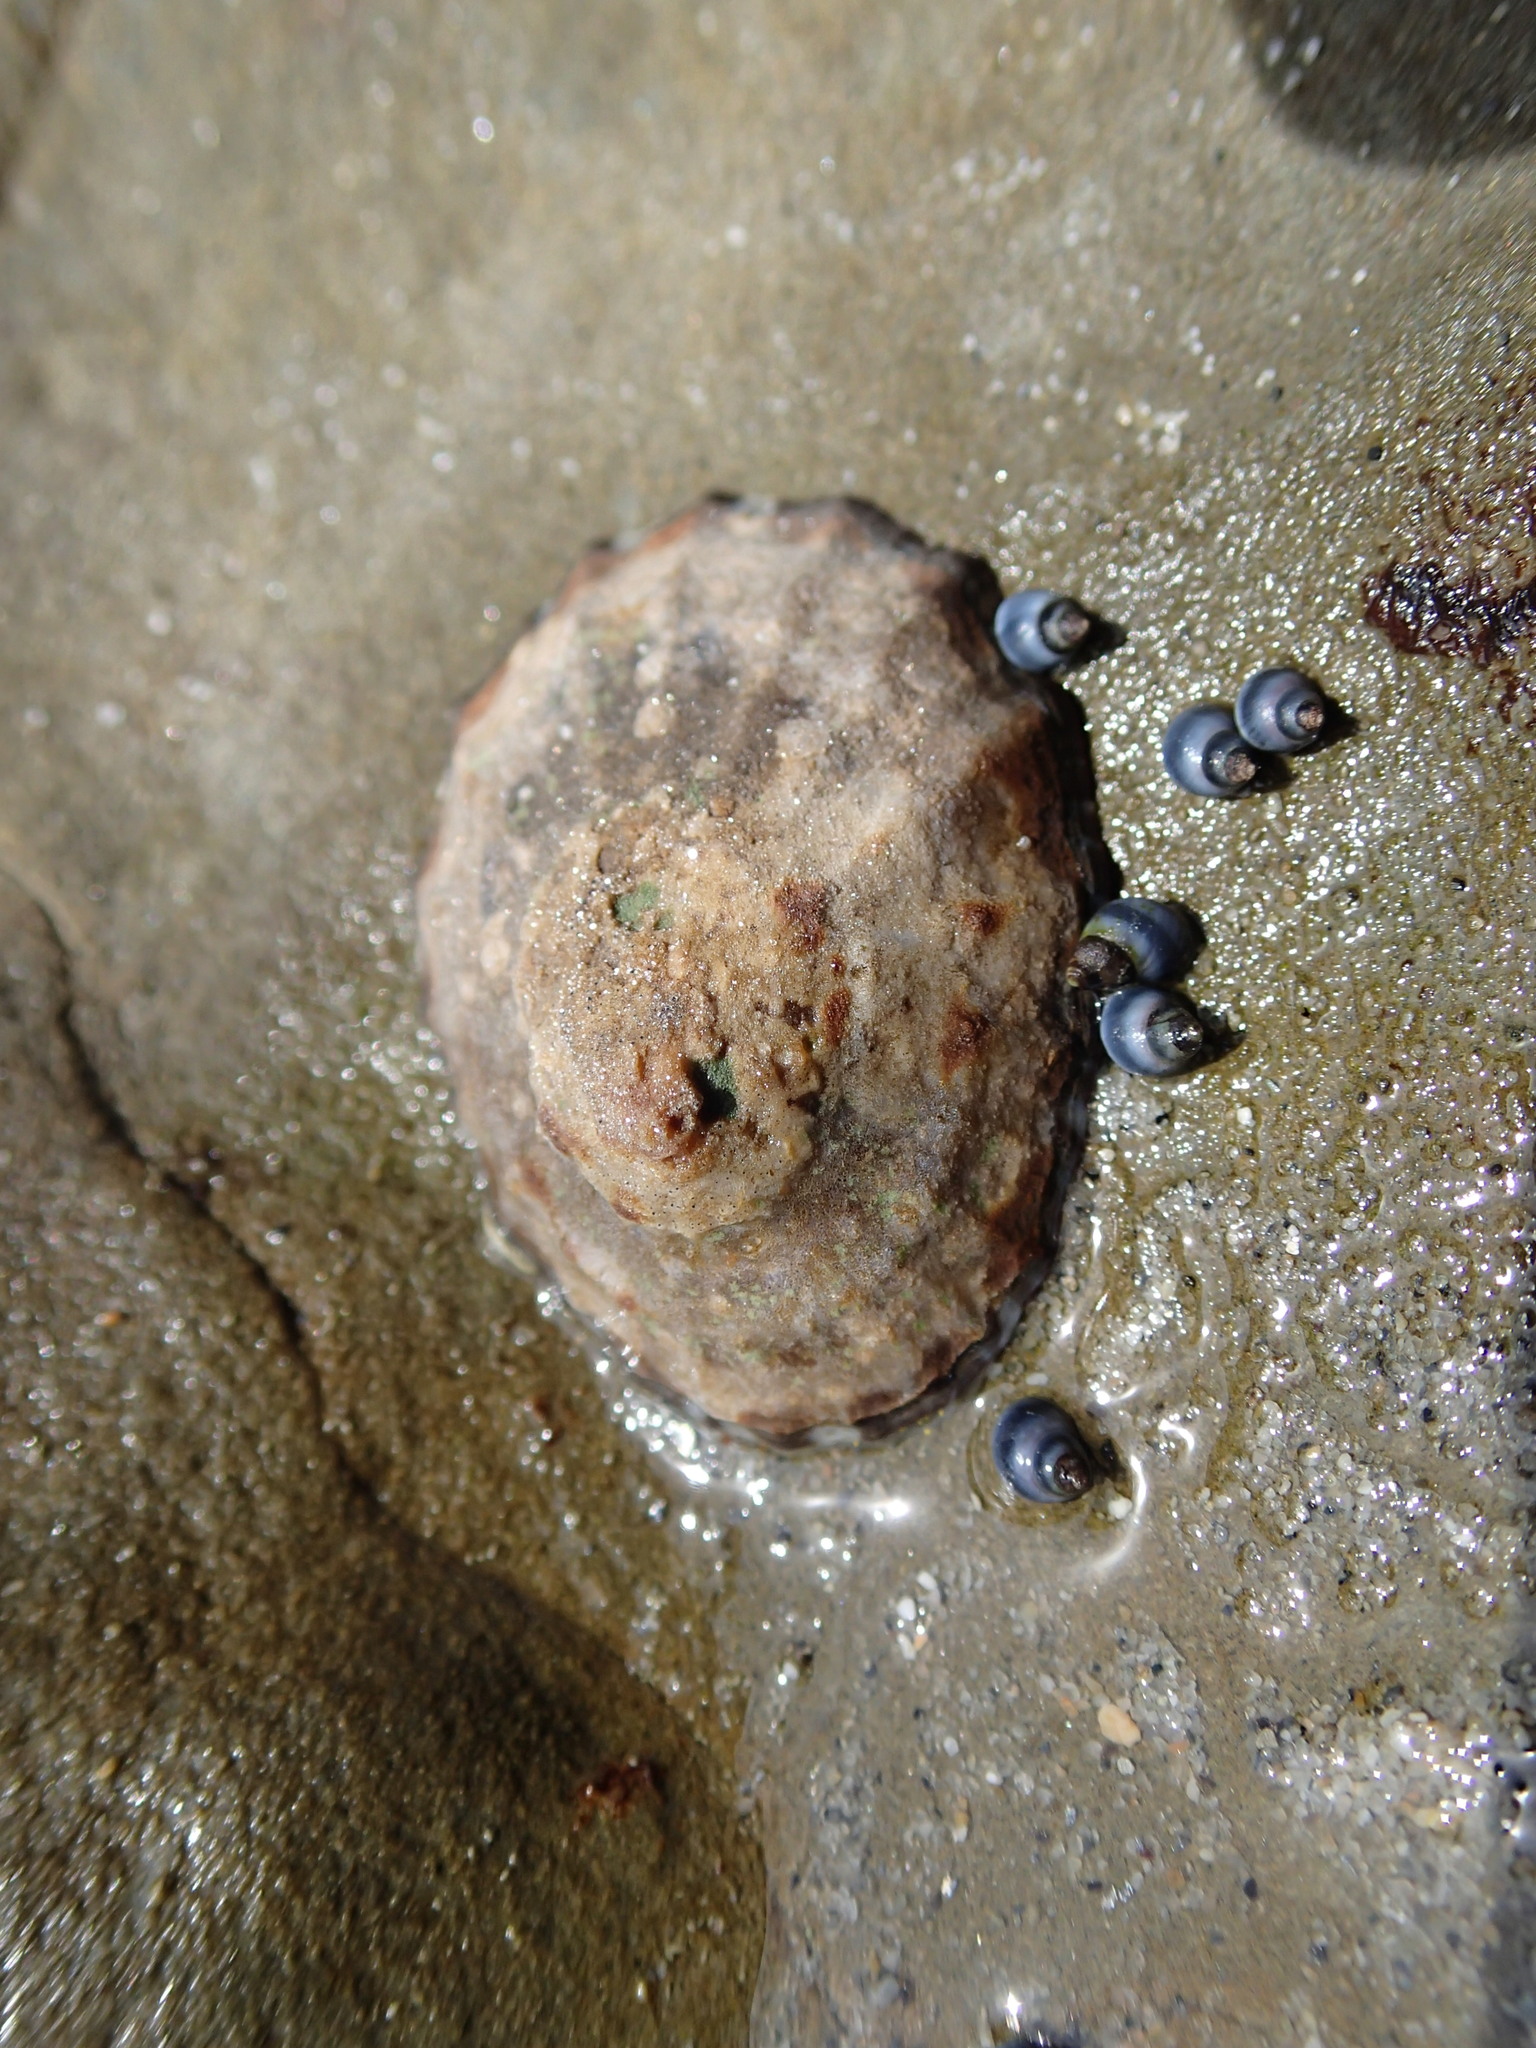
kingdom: Animalia
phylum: Mollusca
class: Gastropoda
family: Nacellidae
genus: Cellana
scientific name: Cellana radians
